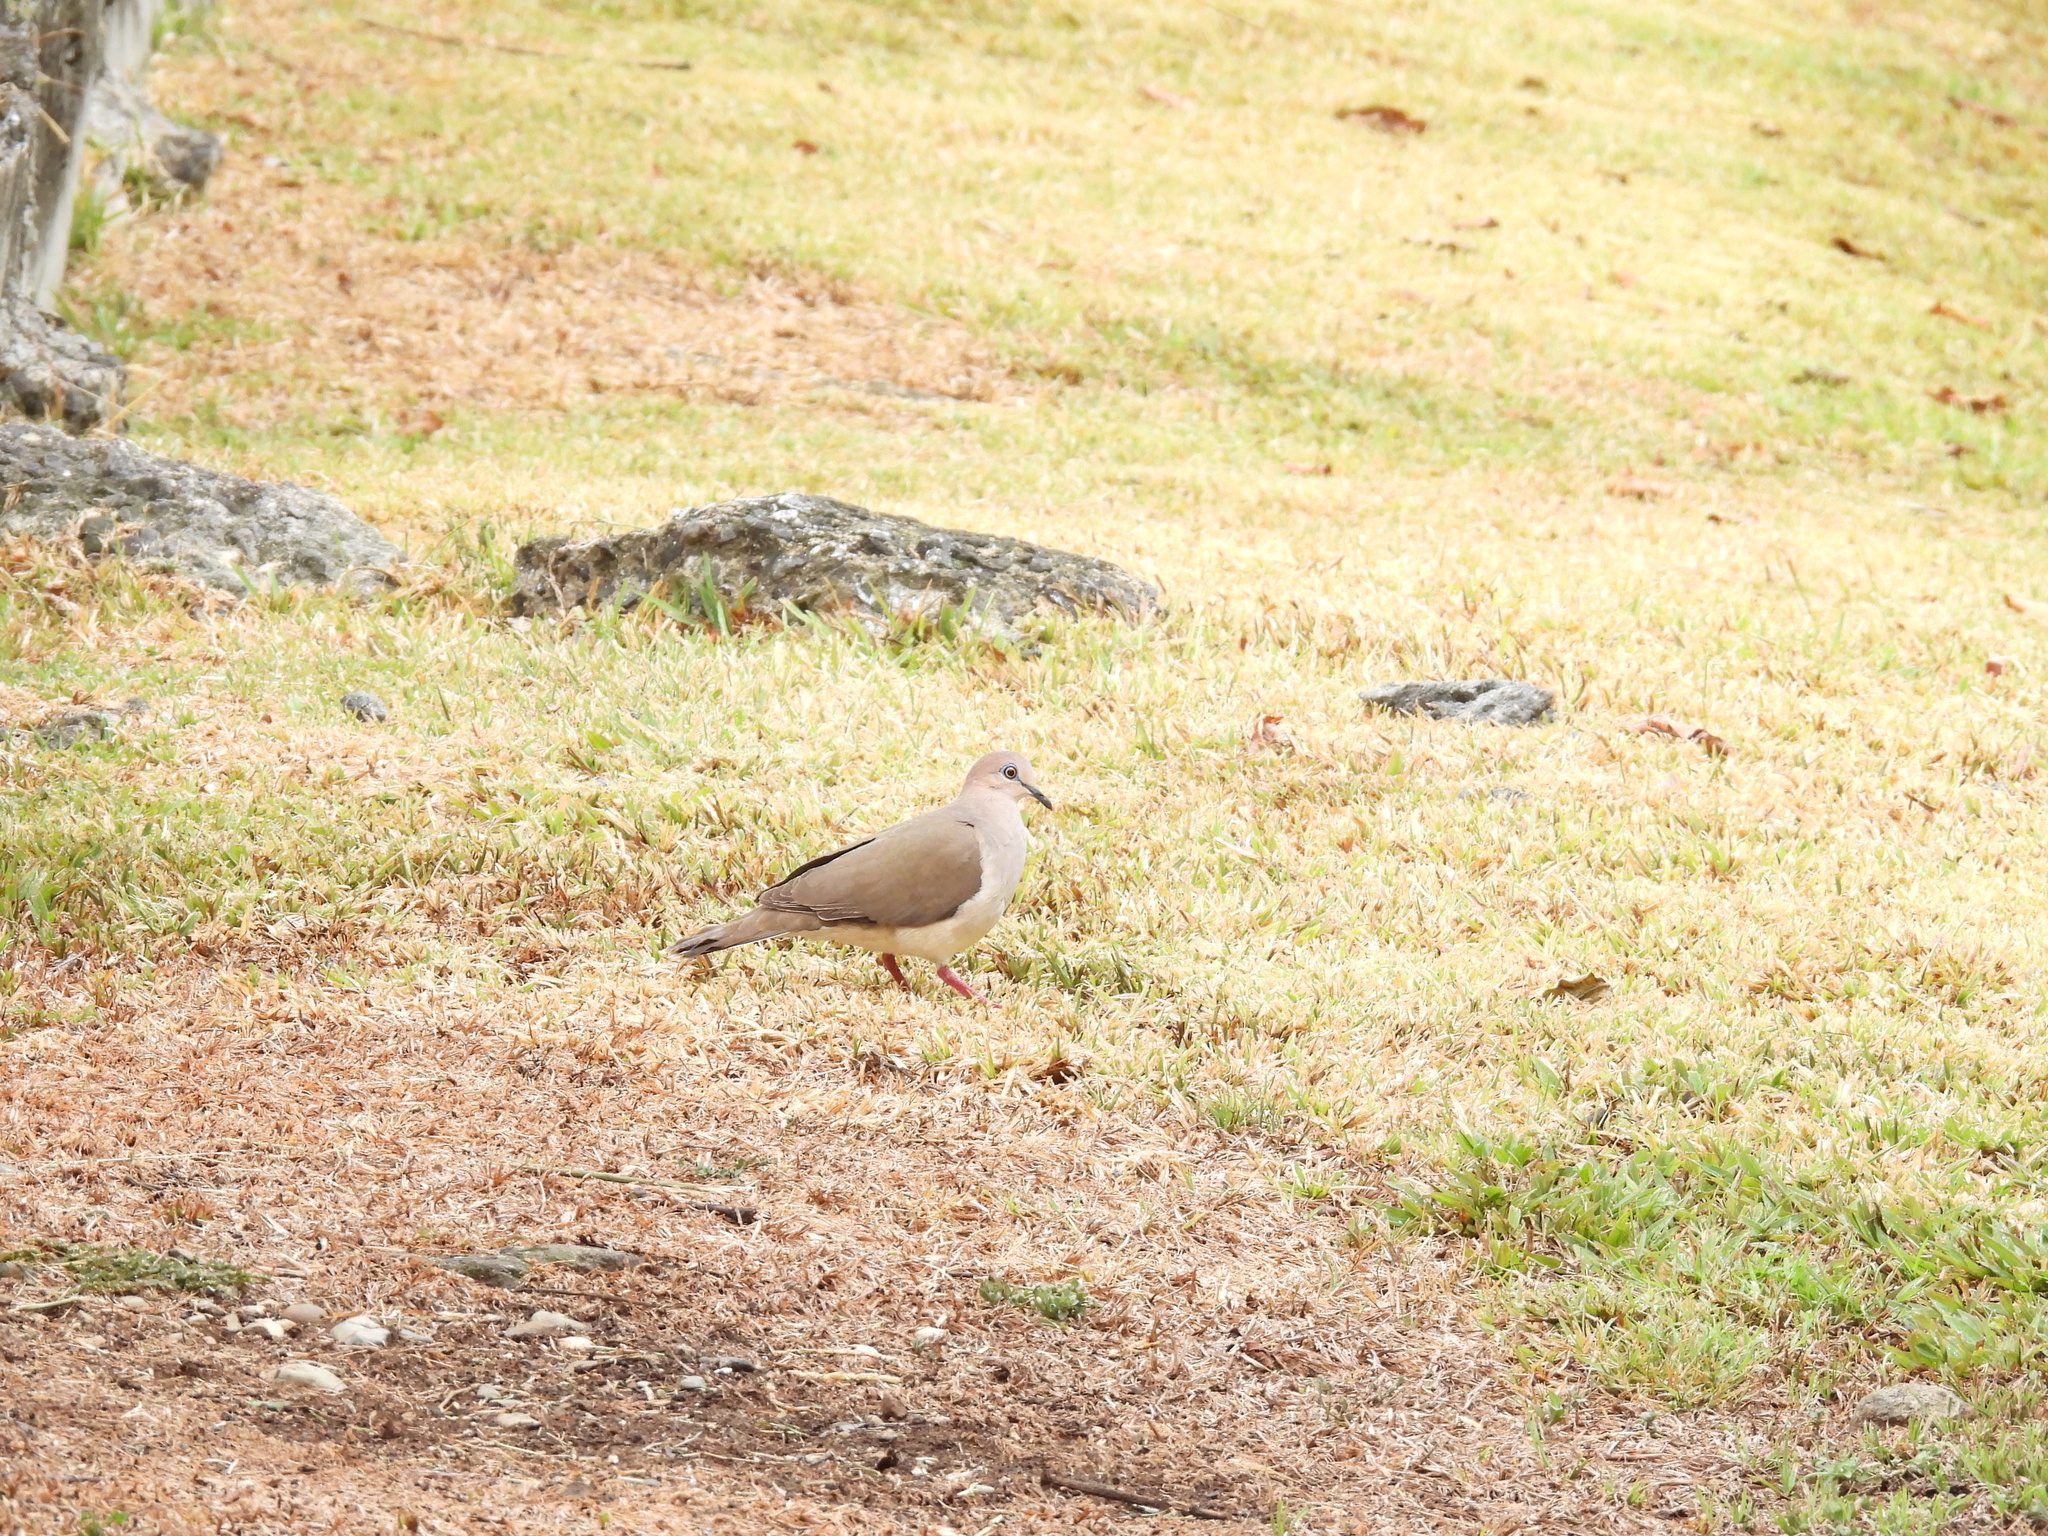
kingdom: Animalia
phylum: Chordata
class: Aves
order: Columbiformes
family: Columbidae
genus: Leptotila
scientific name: Leptotila verreauxi
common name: White-tipped dove
